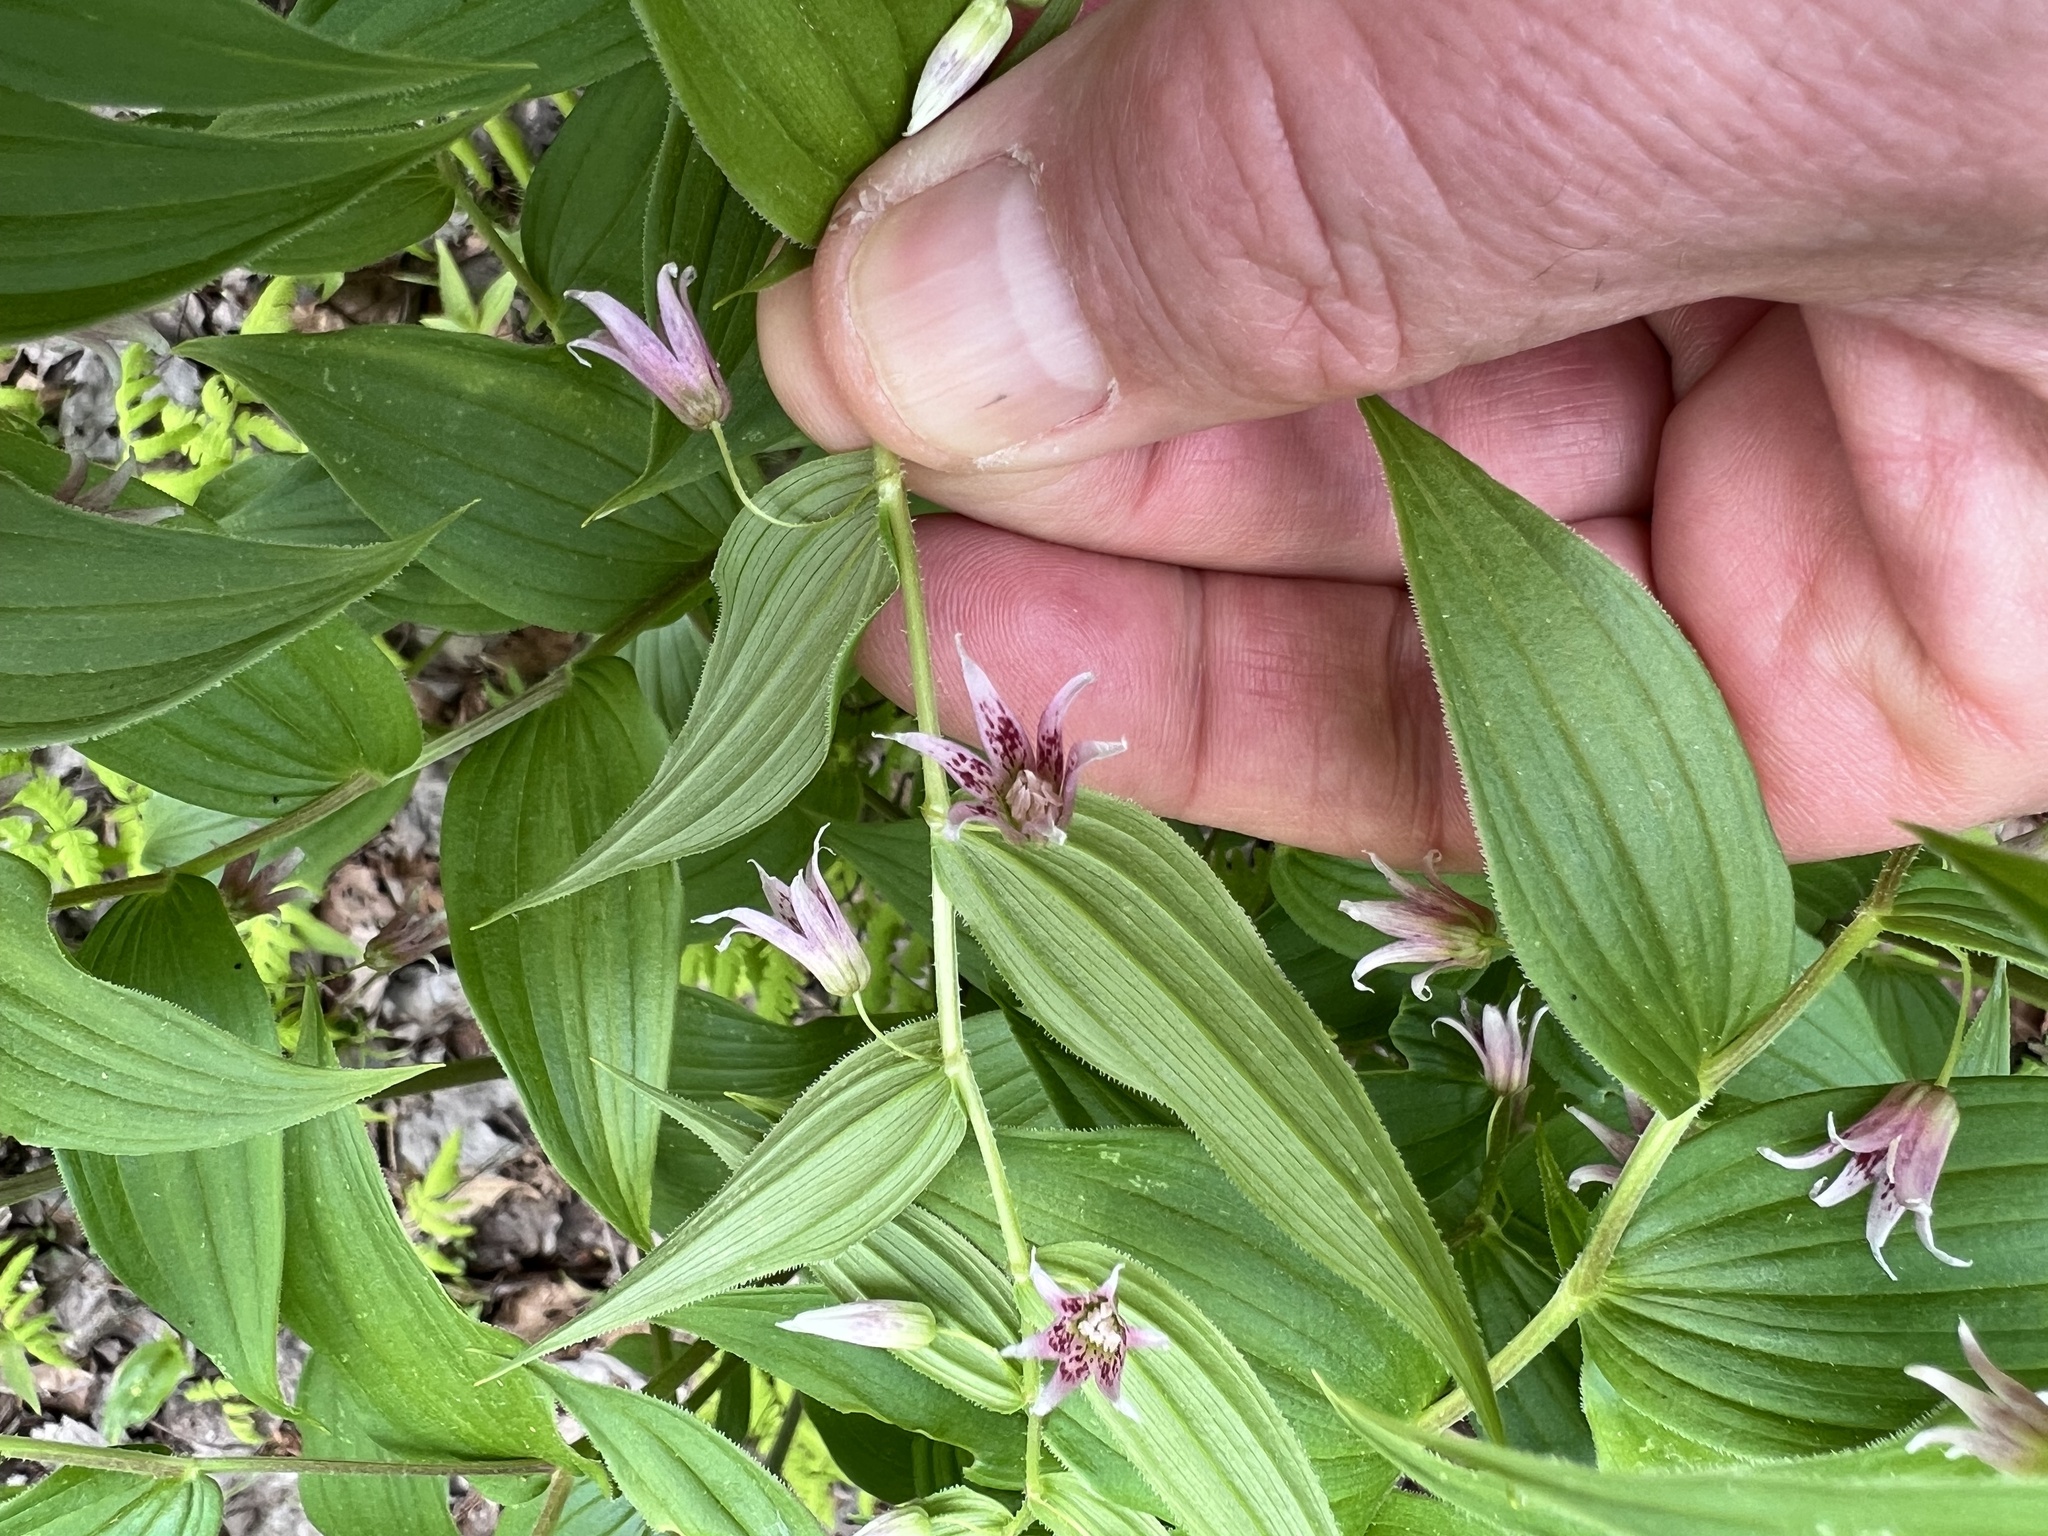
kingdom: Plantae
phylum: Tracheophyta
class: Liliopsida
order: Liliales
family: Liliaceae
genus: Streptopus
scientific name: Streptopus lanceolatus
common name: Rose mandarin
